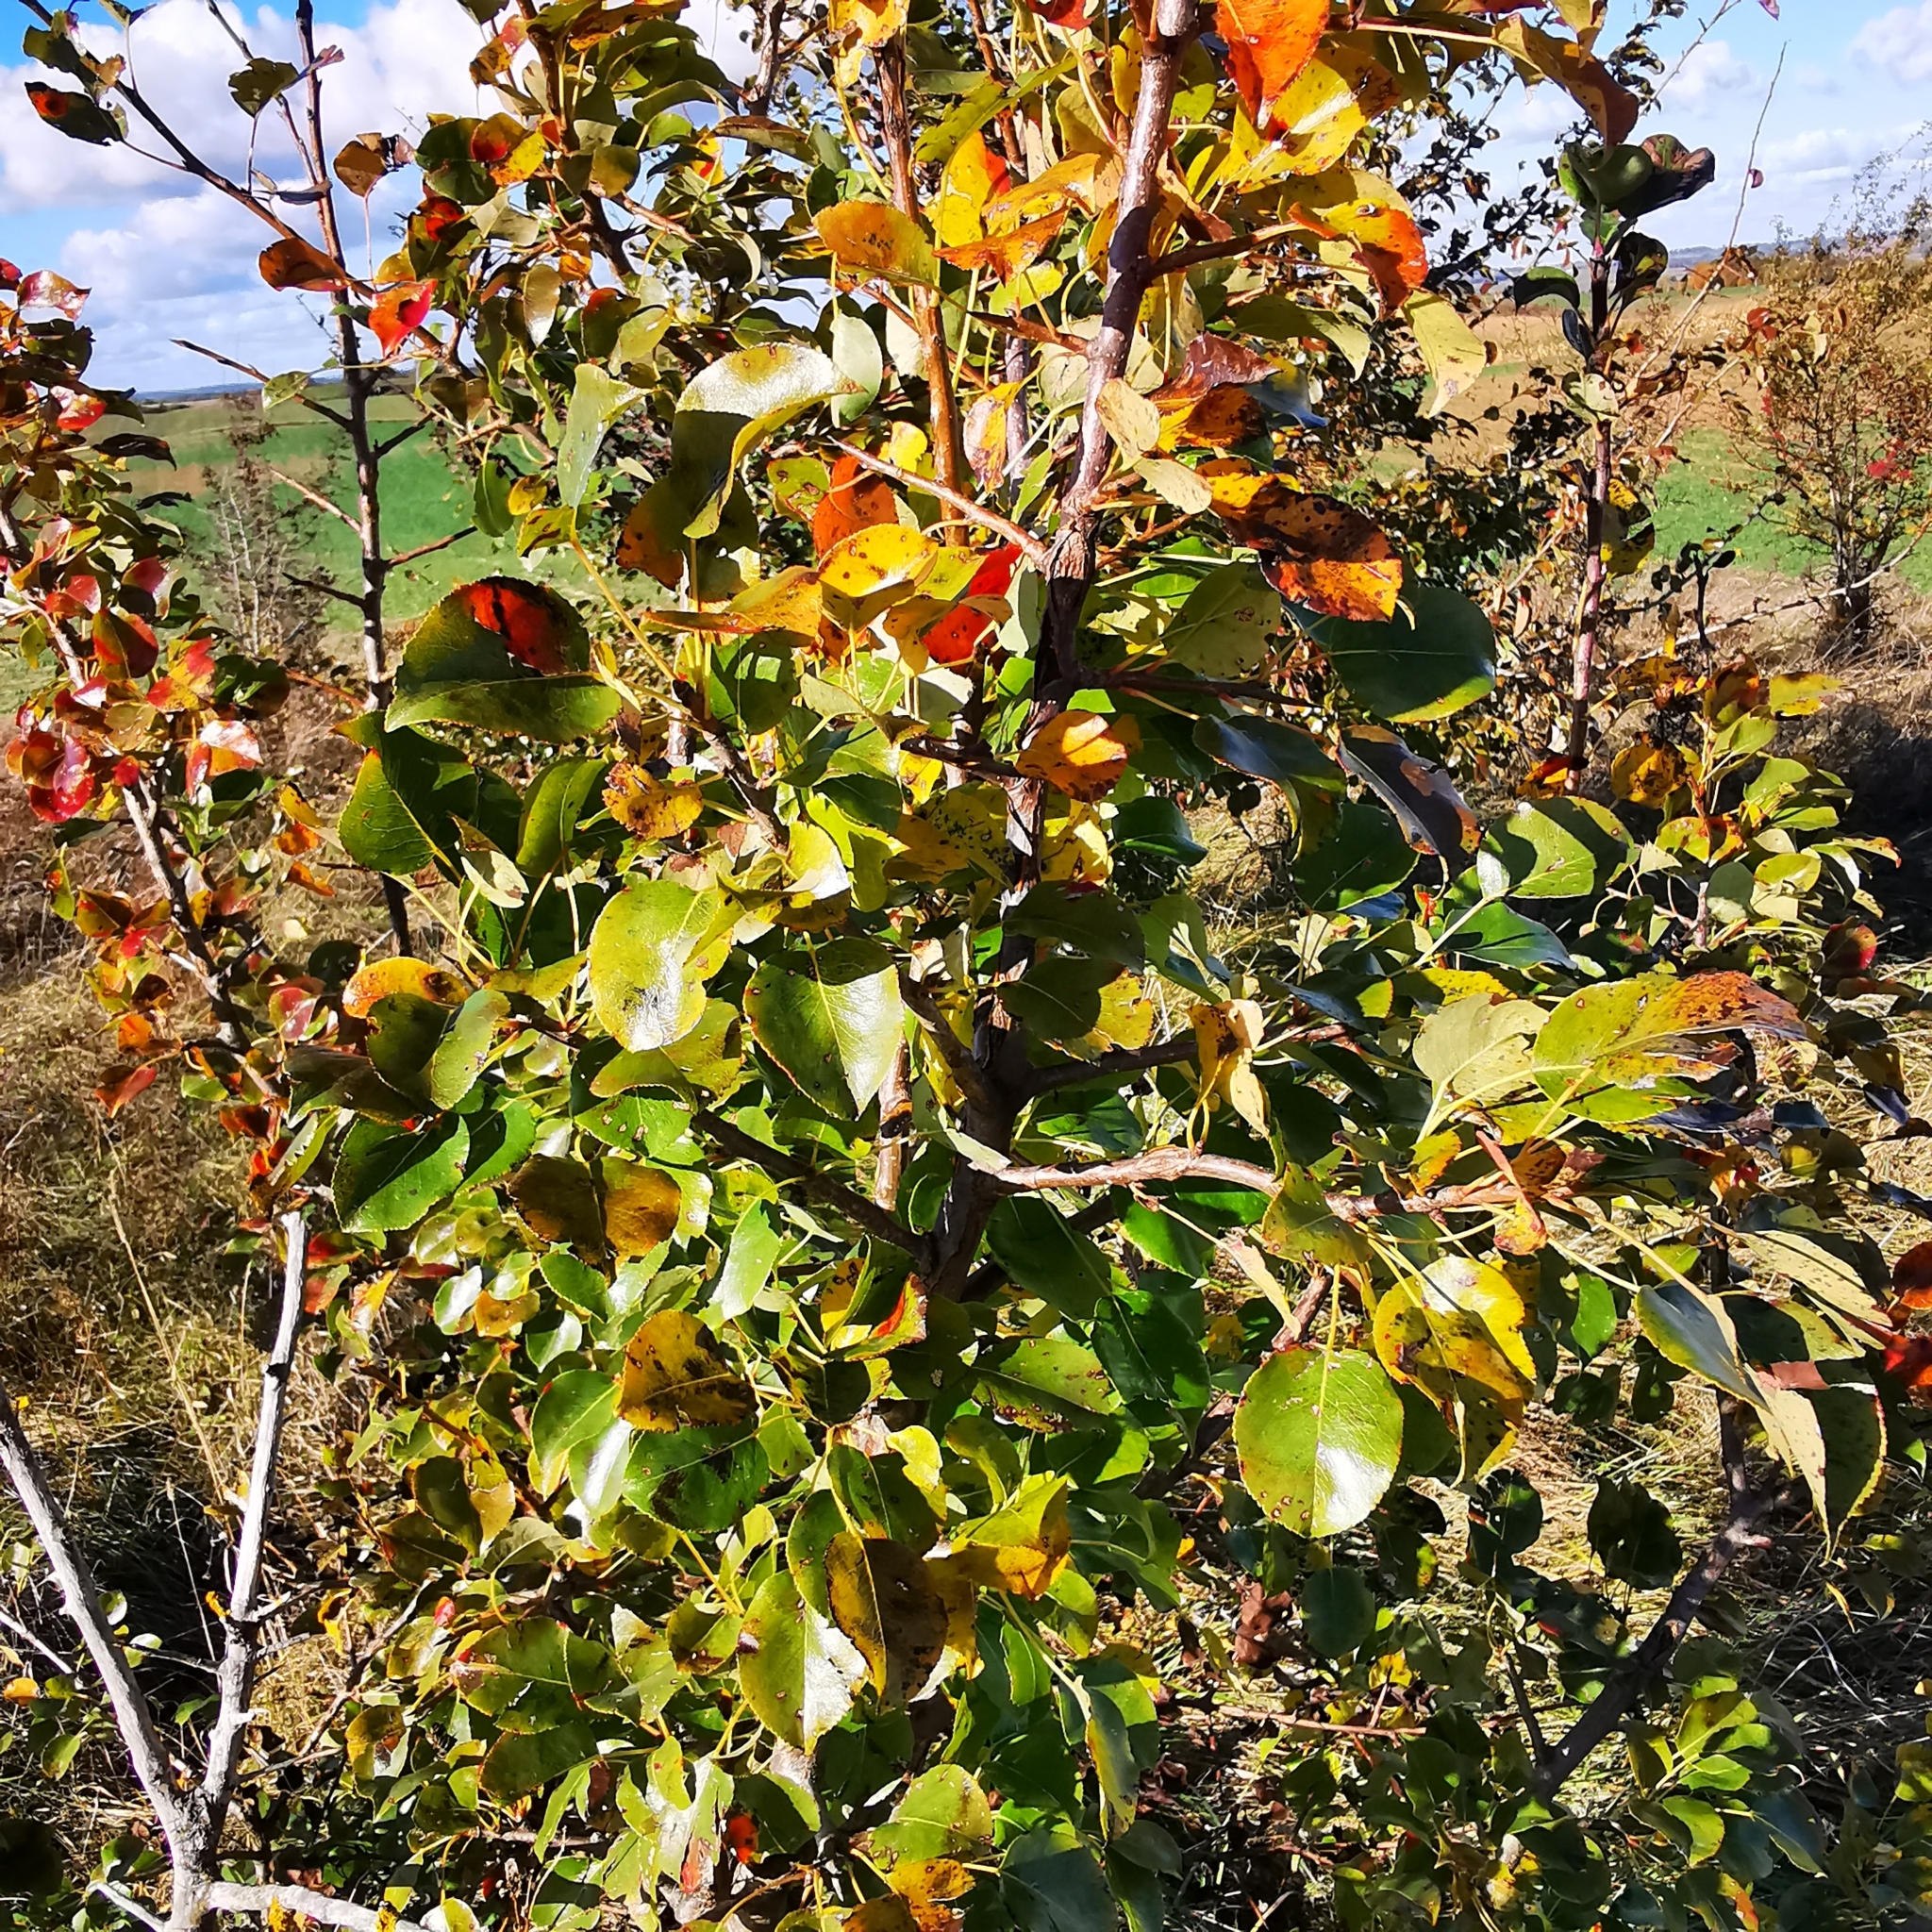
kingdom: Plantae
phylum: Tracheophyta
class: Magnoliopsida
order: Rosales
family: Rosaceae
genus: Pyrus
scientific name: Pyrus communis
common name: Pear
